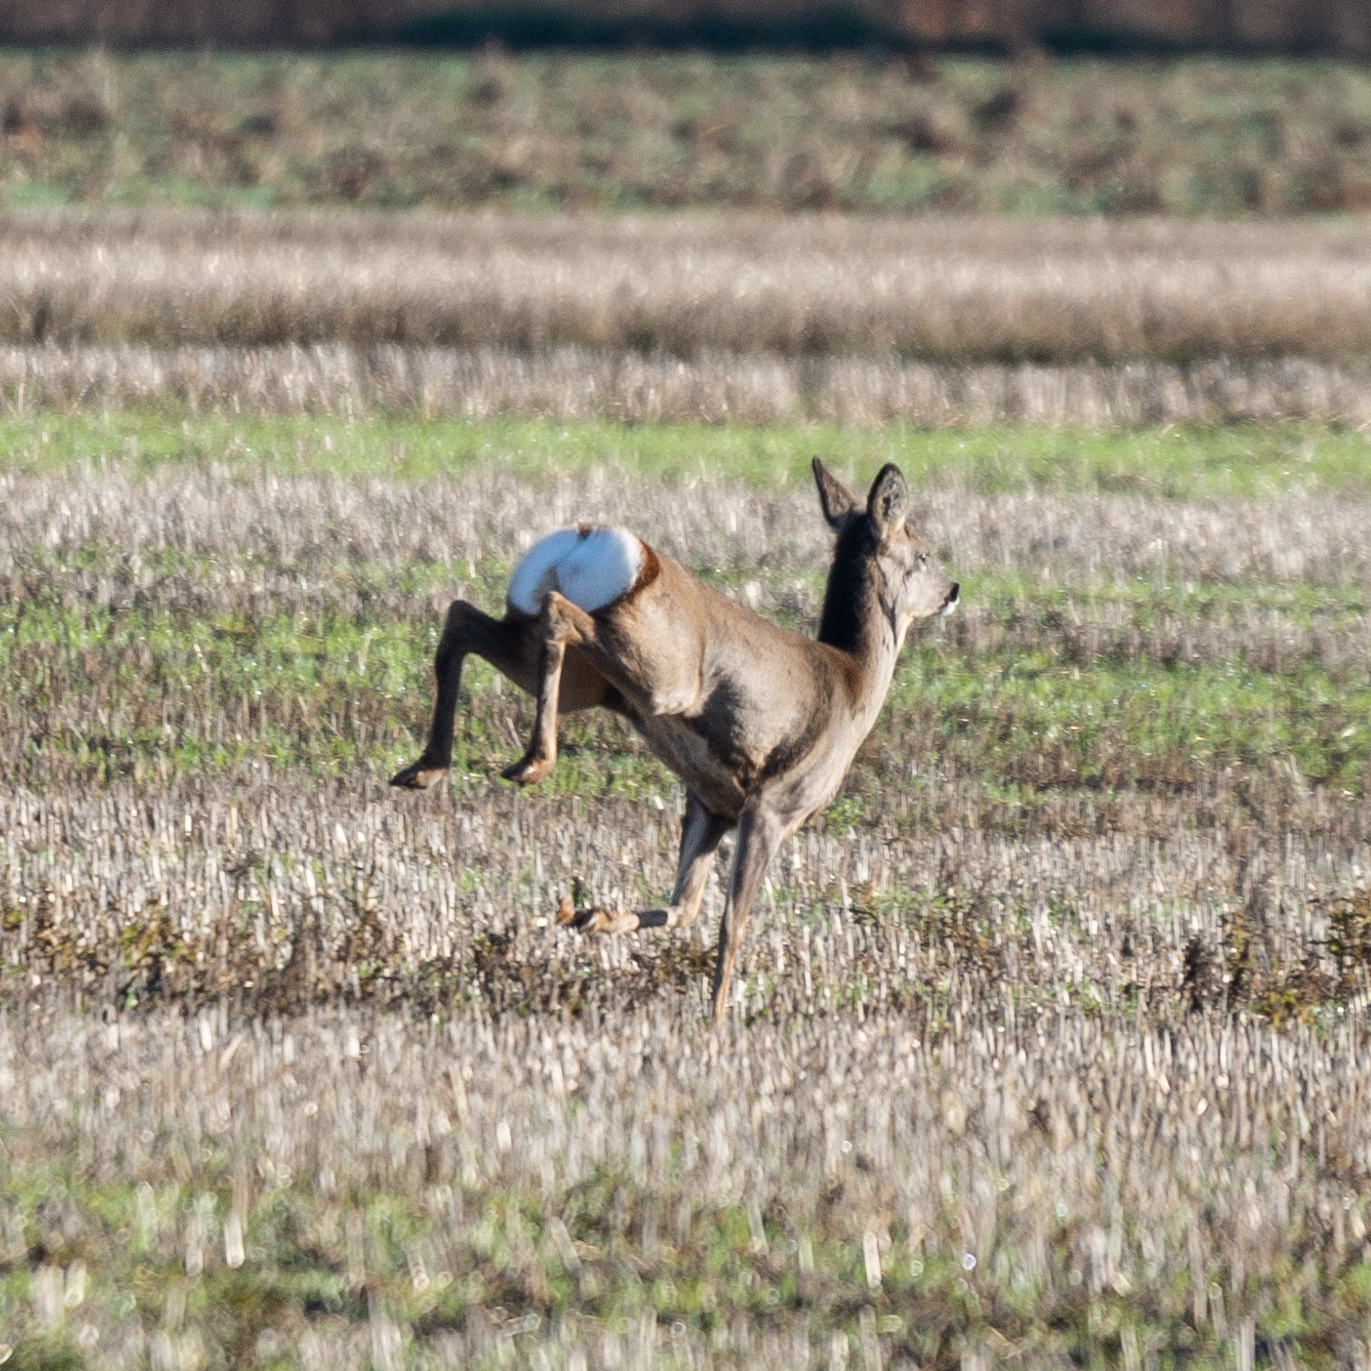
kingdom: Animalia
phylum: Chordata
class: Mammalia
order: Artiodactyla
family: Cervidae
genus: Capreolus
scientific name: Capreolus capreolus
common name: Western roe deer
